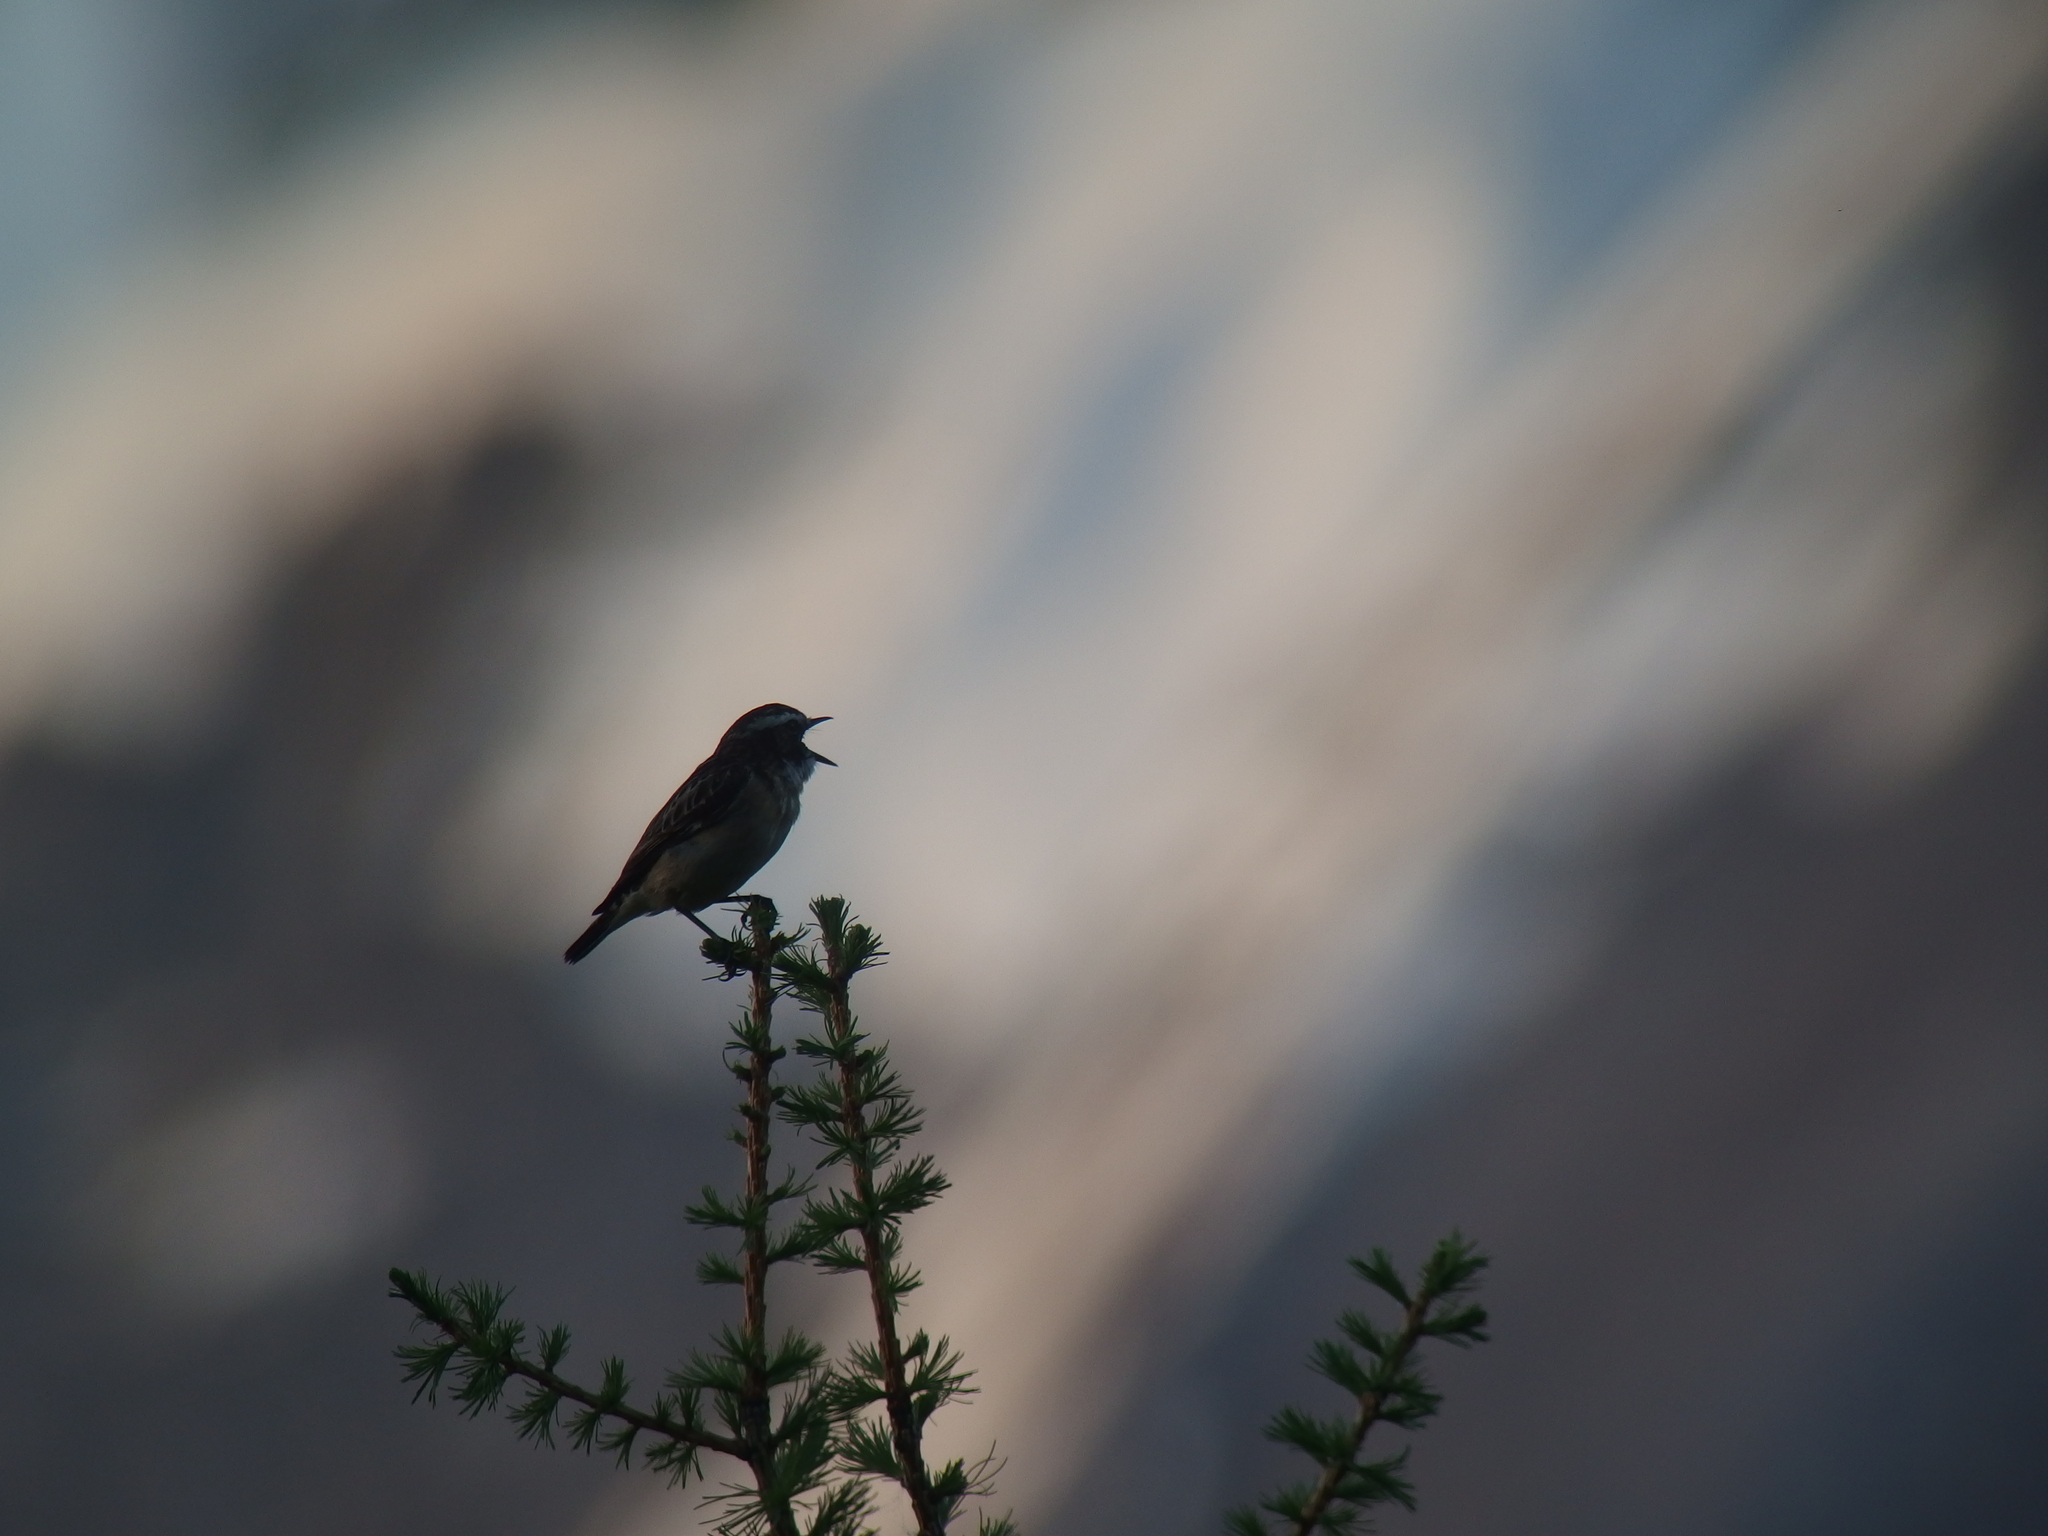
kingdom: Animalia
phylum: Chordata
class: Aves
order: Passeriformes
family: Muscicapidae
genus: Saxicola
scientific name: Saxicola rubetra
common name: Whinchat
